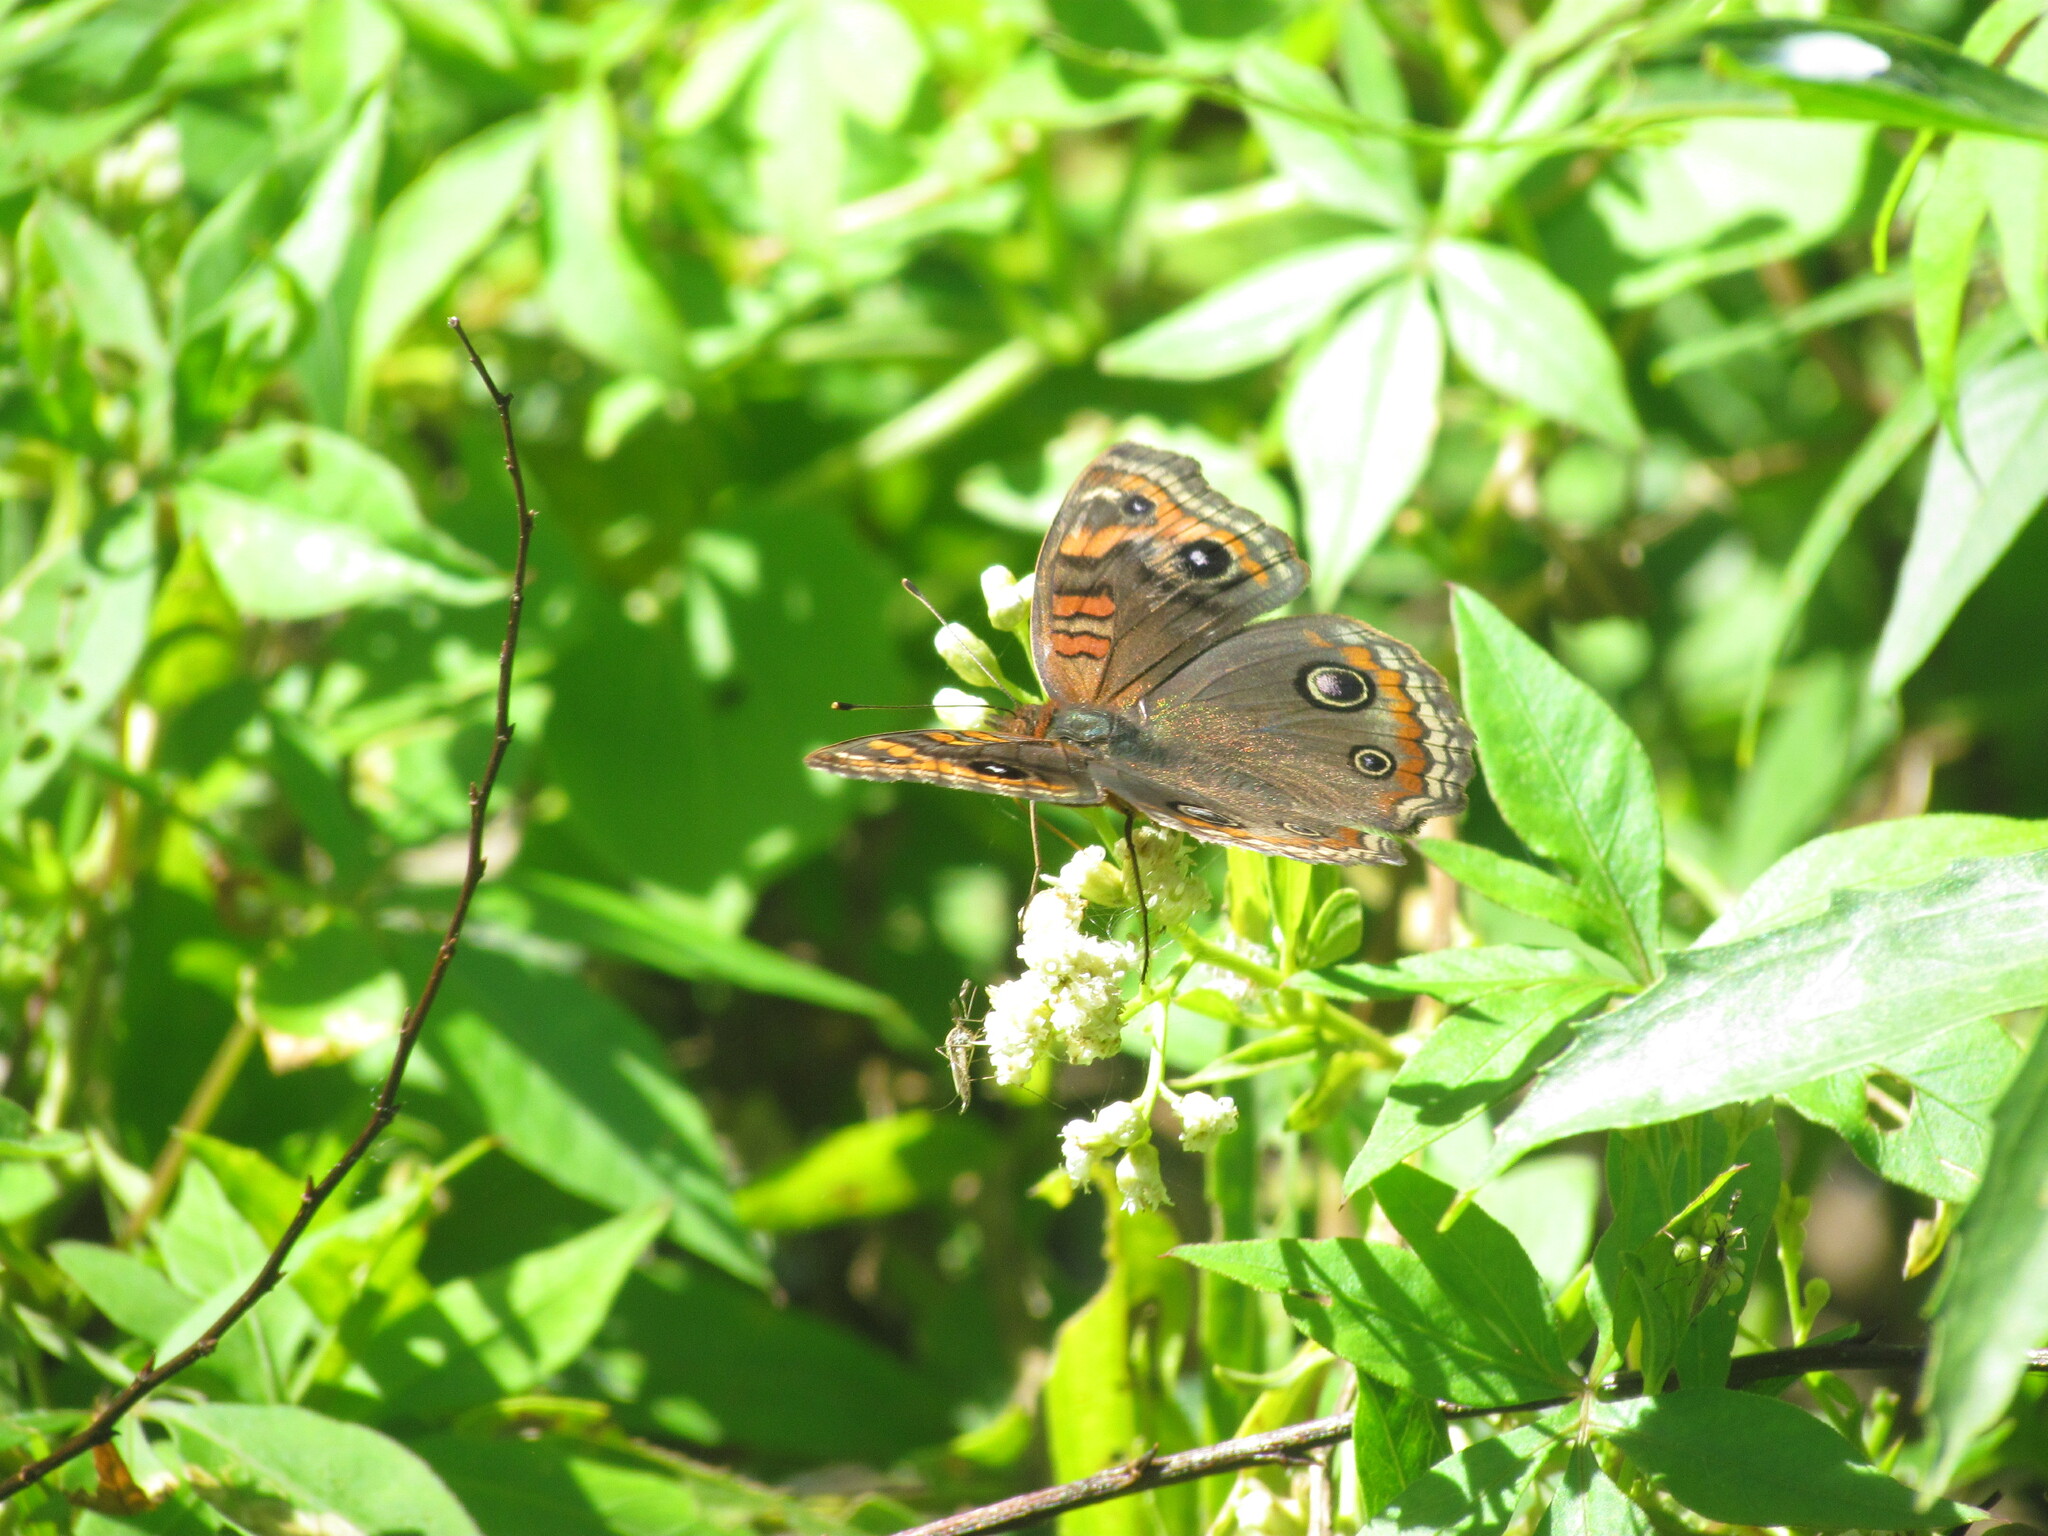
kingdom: Animalia
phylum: Arthropoda
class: Insecta
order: Lepidoptera
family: Nymphalidae
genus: Junonia
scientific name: Junonia lavinia
